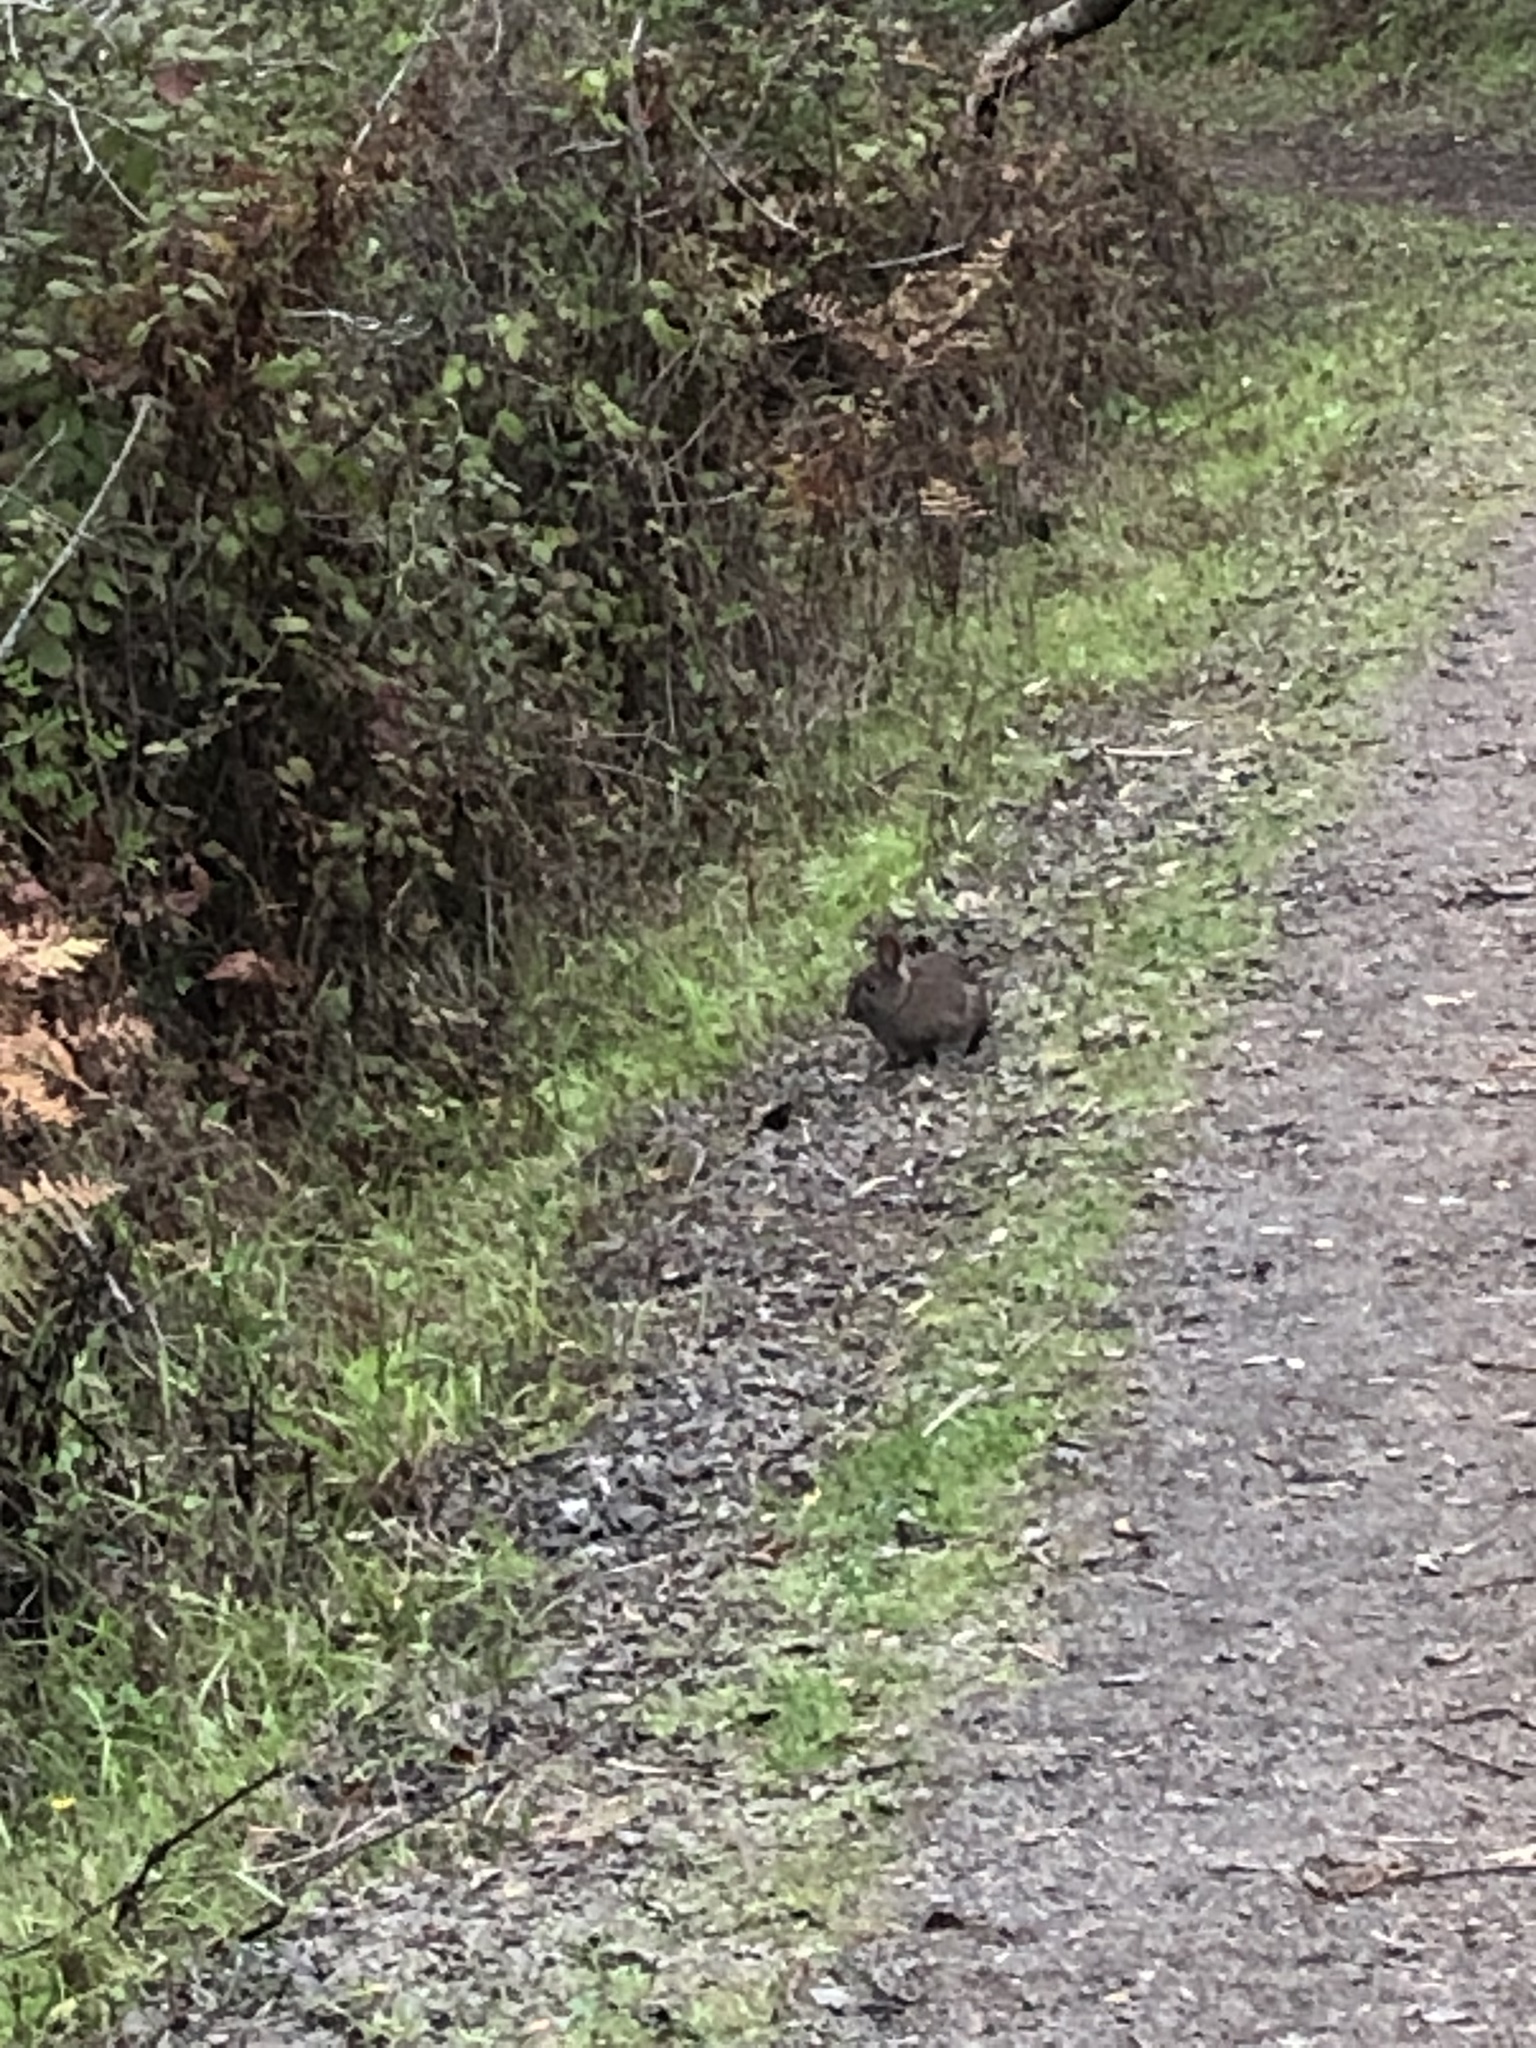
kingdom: Animalia
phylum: Chordata
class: Mammalia
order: Lagomorpha
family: Leporidae
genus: Sylvilagus
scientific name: Sylvilagus bachmani
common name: Brush rabbit
